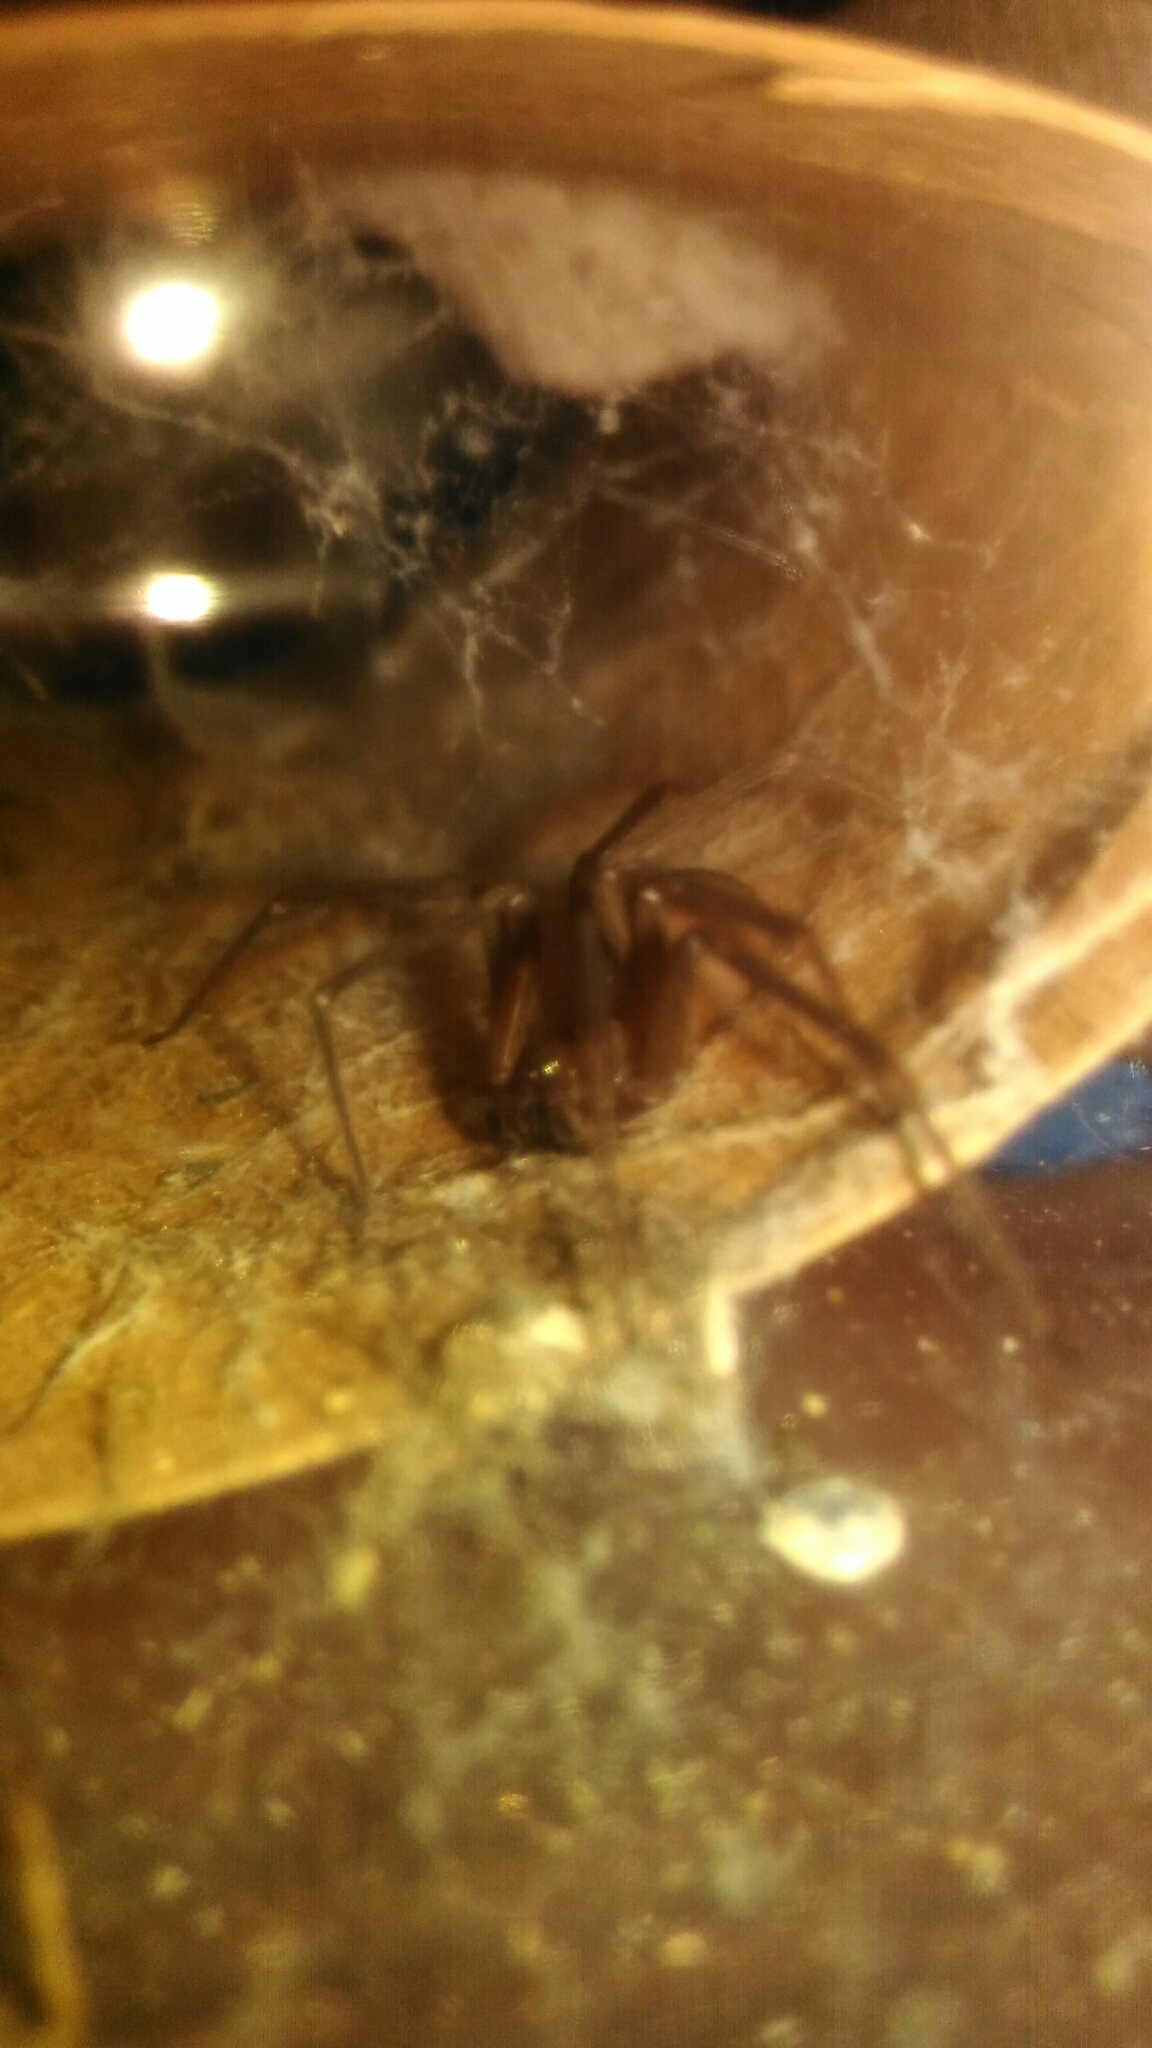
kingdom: Animalia
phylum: Arthropoda
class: Arachnida
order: Araneae
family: Sicariidae
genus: Loxosceles
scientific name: Loxosceles reclusa
